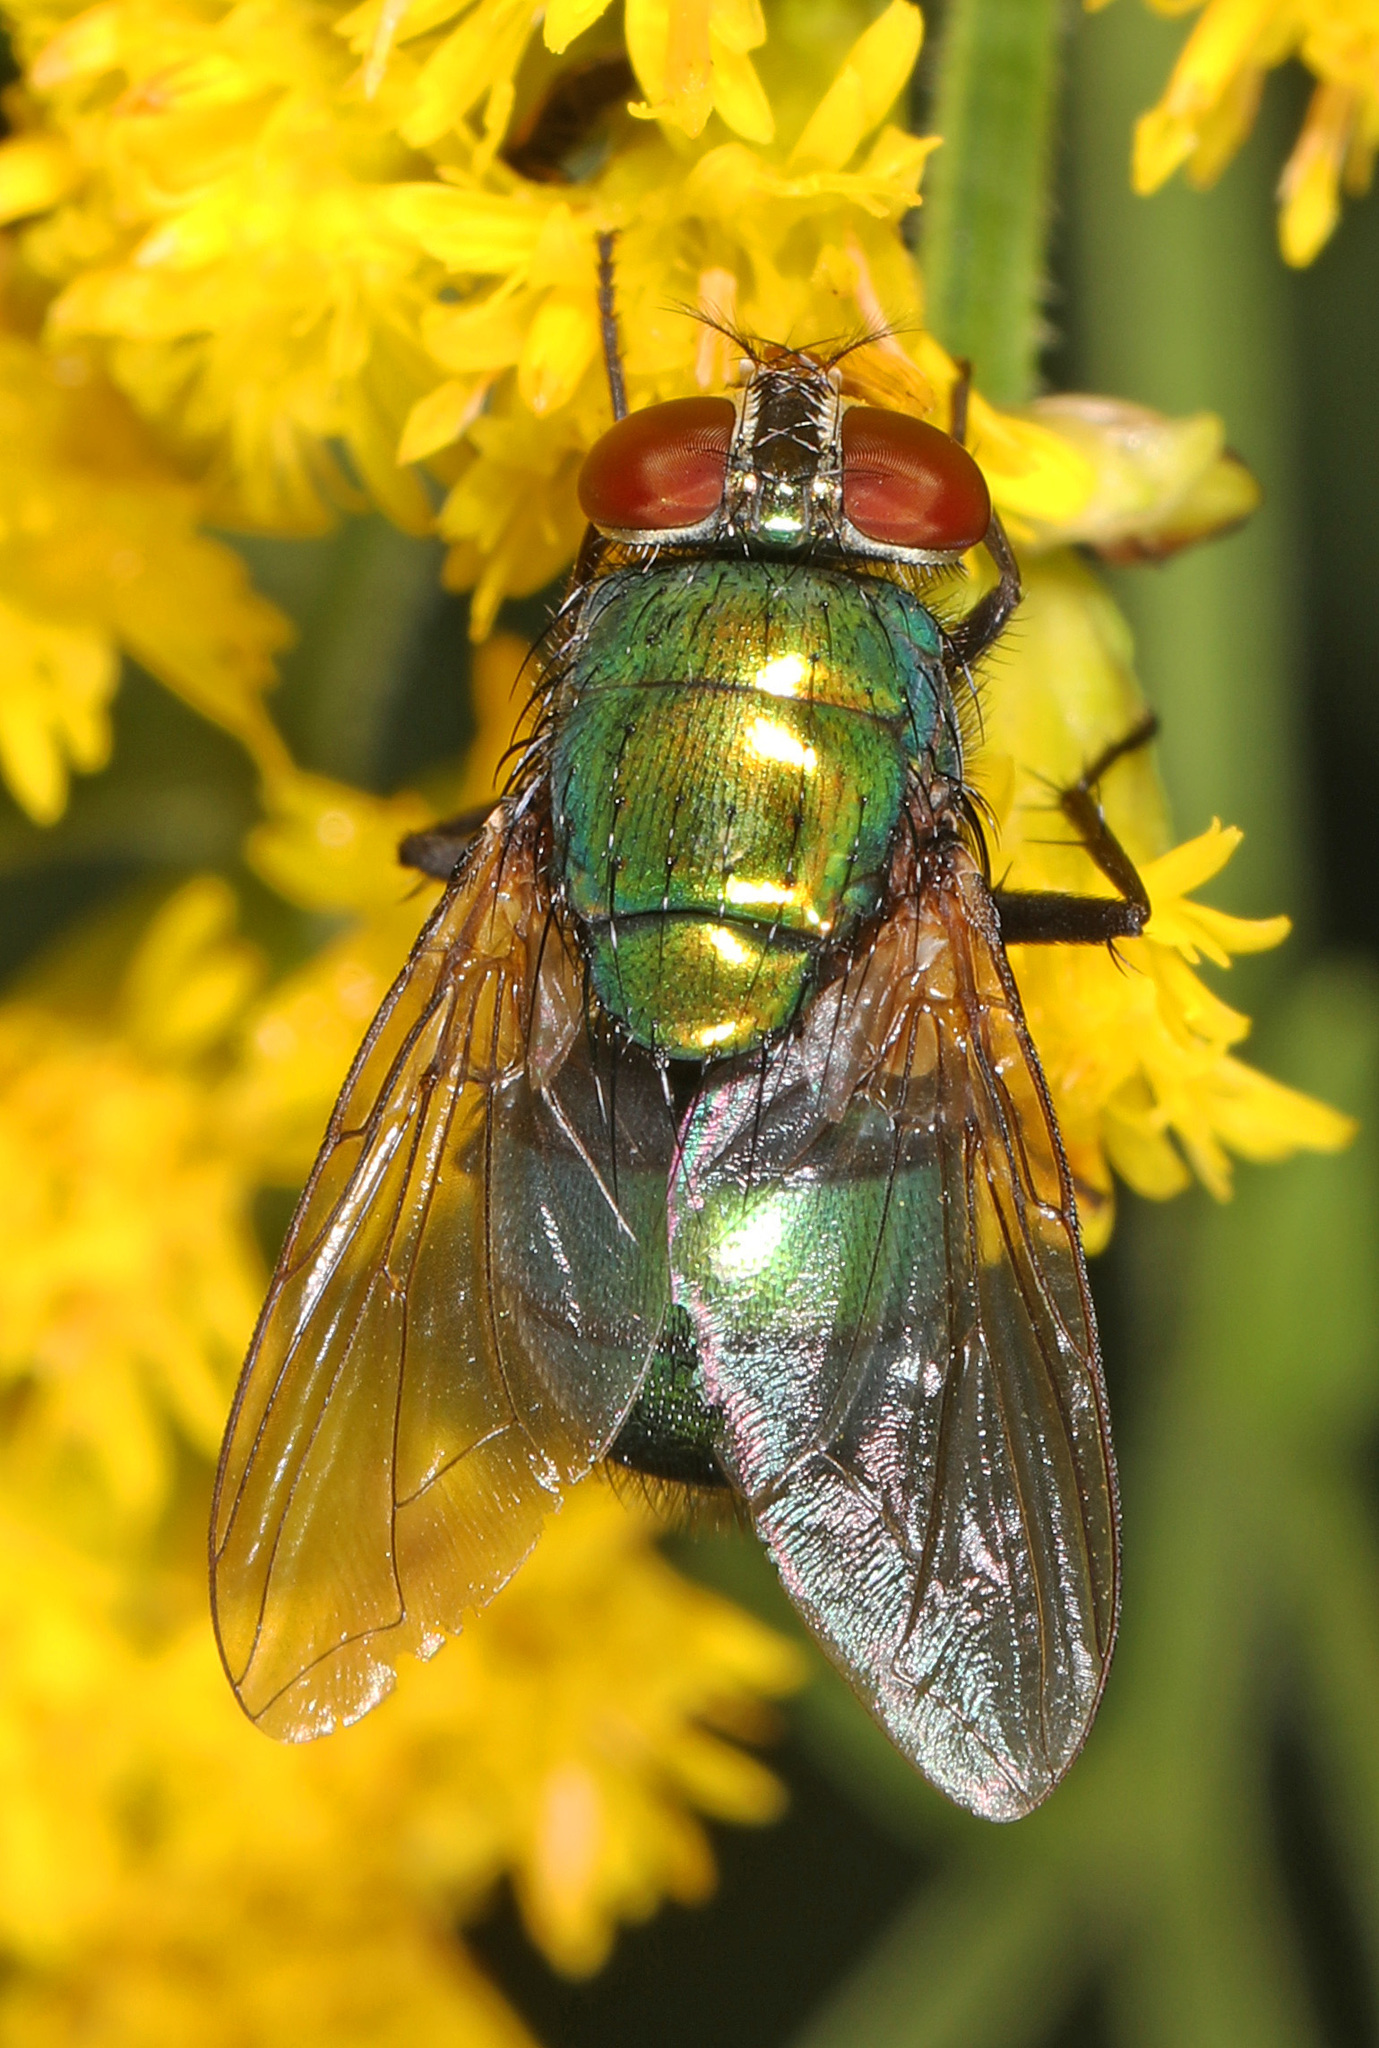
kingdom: Animalia
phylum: Arthropoda
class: Insecta
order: Diptera
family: Calliphoridae
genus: Lucilia
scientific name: Lucilia caeruleiviridis
